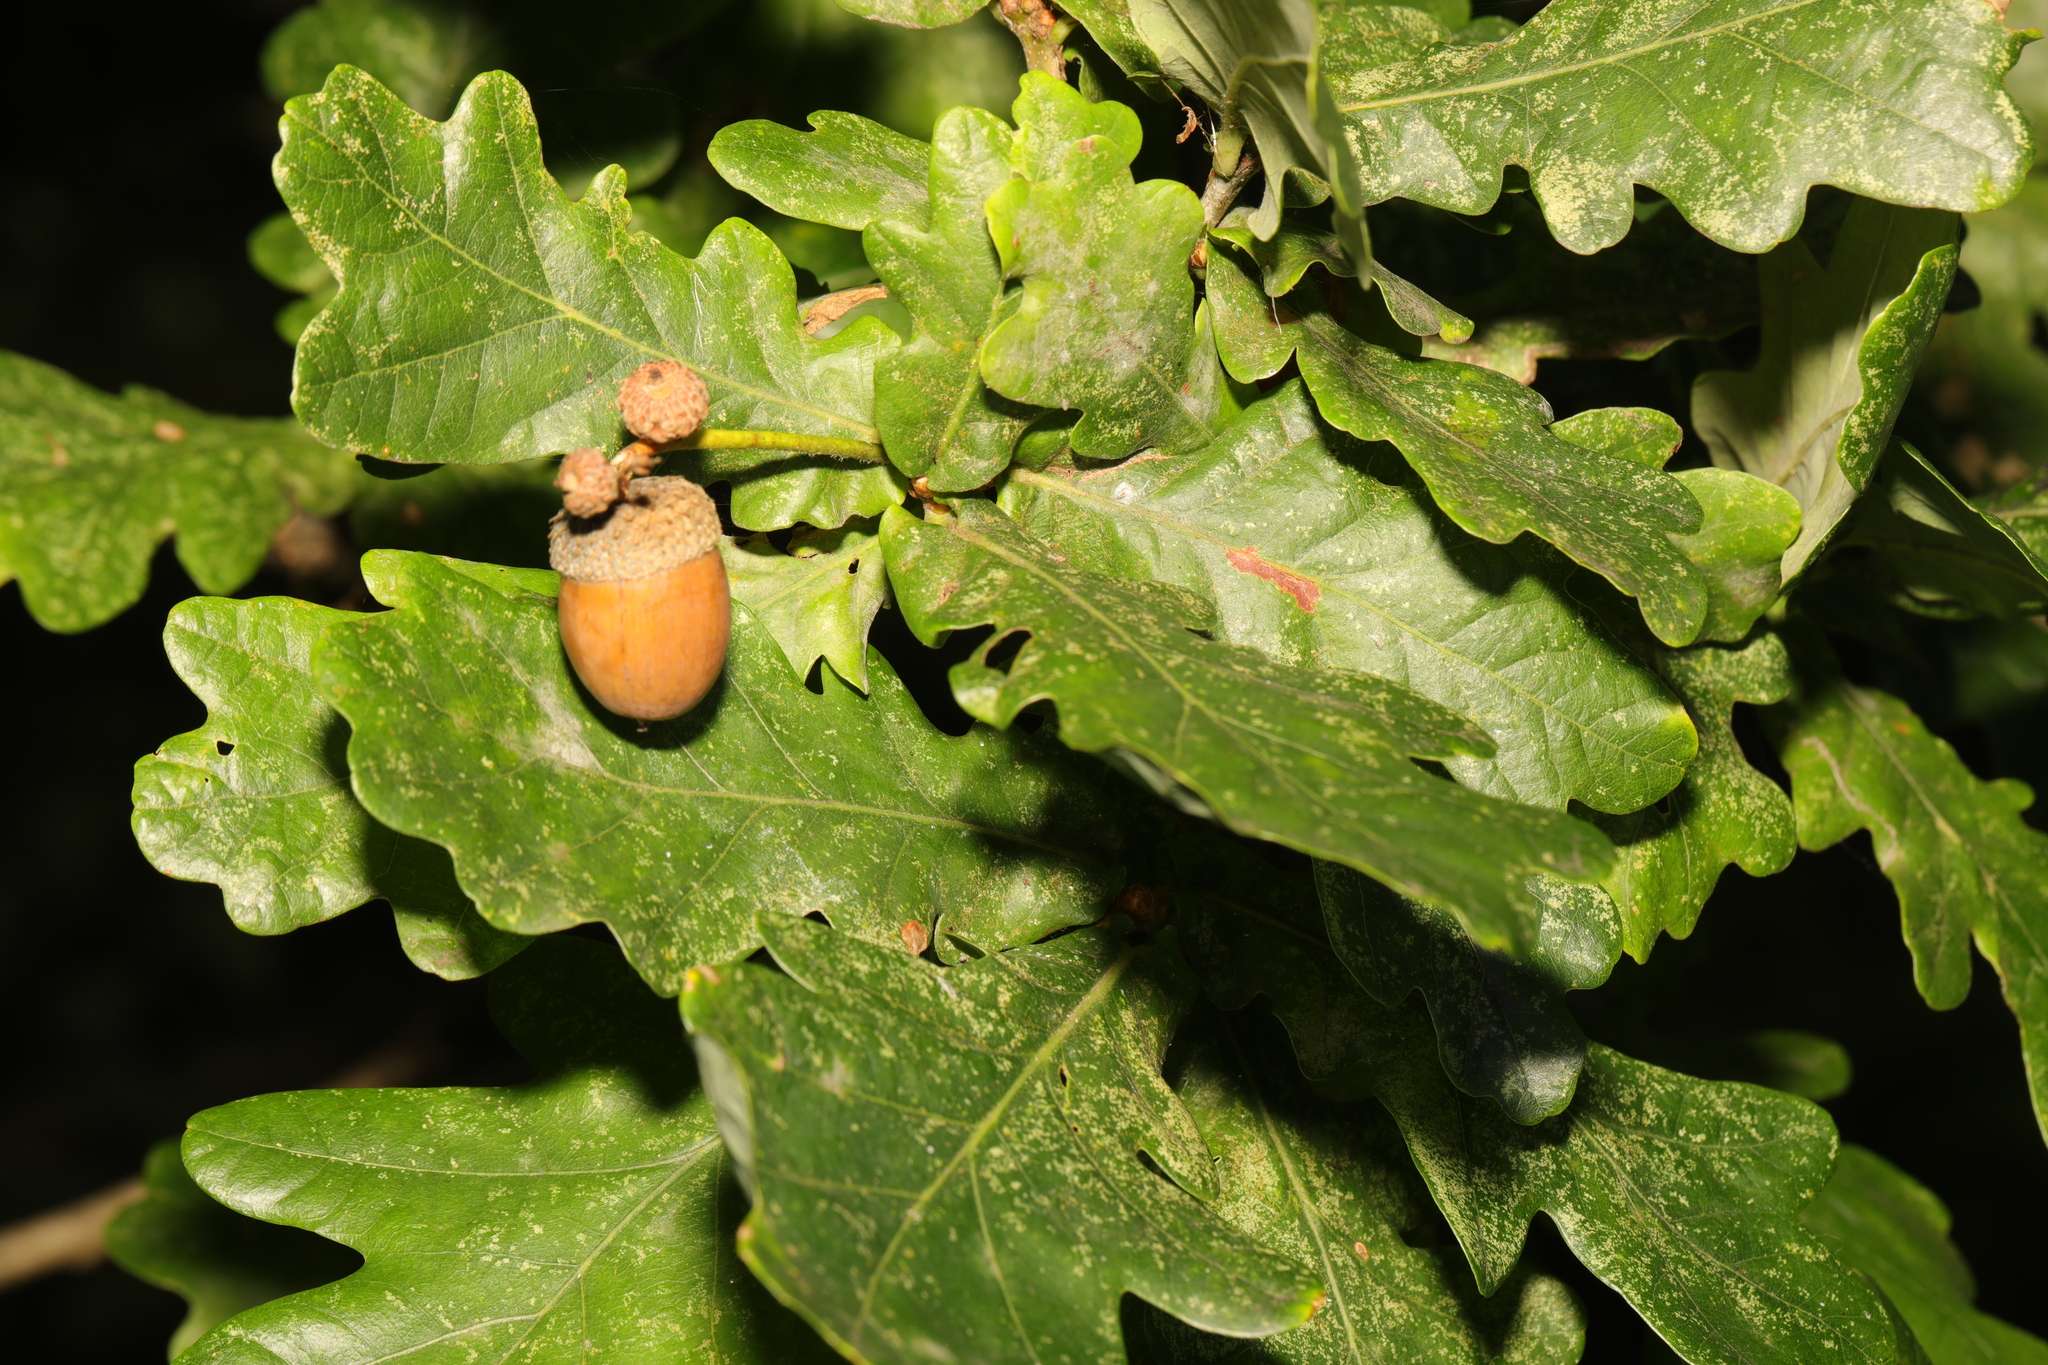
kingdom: Plantae
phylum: Tracheophyta
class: Magnoliopsida
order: Fagales
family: Fagaceae
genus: Quercus
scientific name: Quercus robur
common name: Pedunculate oak
